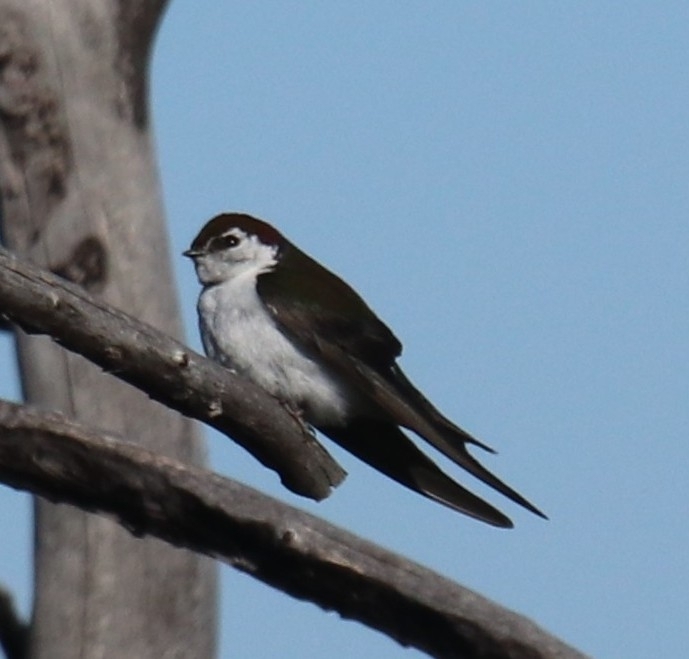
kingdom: Animalia
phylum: Chordata
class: Aves
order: Passeriformes
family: Hirundinidae
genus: Tachycineta
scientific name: Tachycineta thalassina
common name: Violet-green swallow
